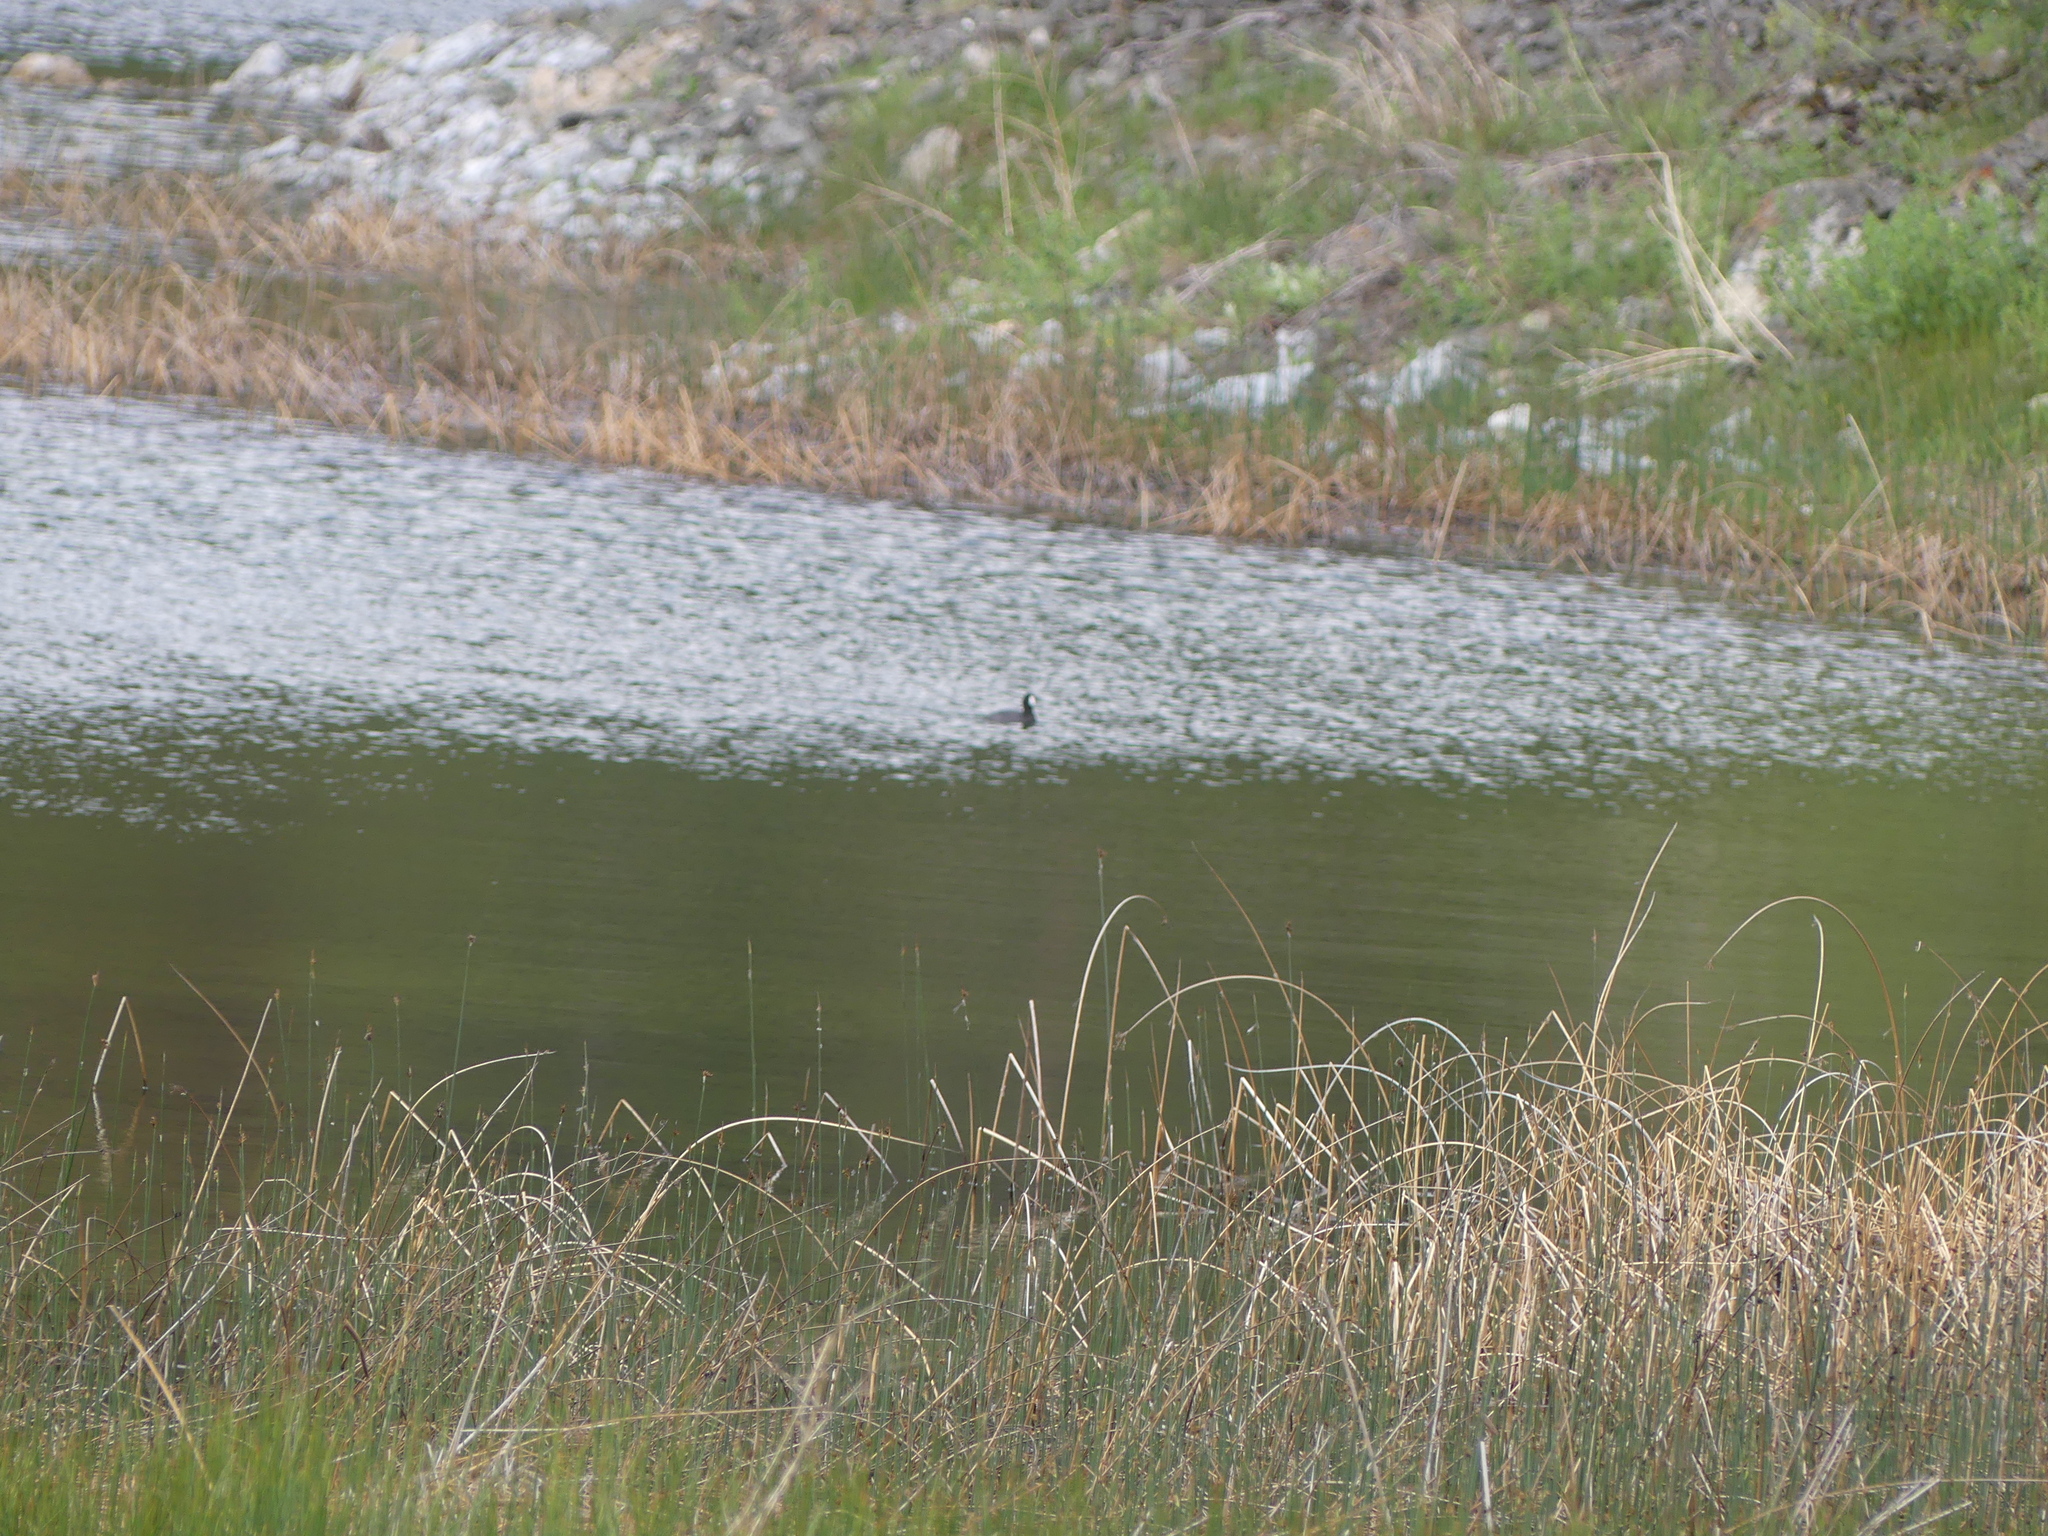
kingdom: Animalia
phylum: Chordata
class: Aves
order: Gruiformes
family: Rallidae
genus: Fulica
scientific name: Fulica americana
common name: American coot
